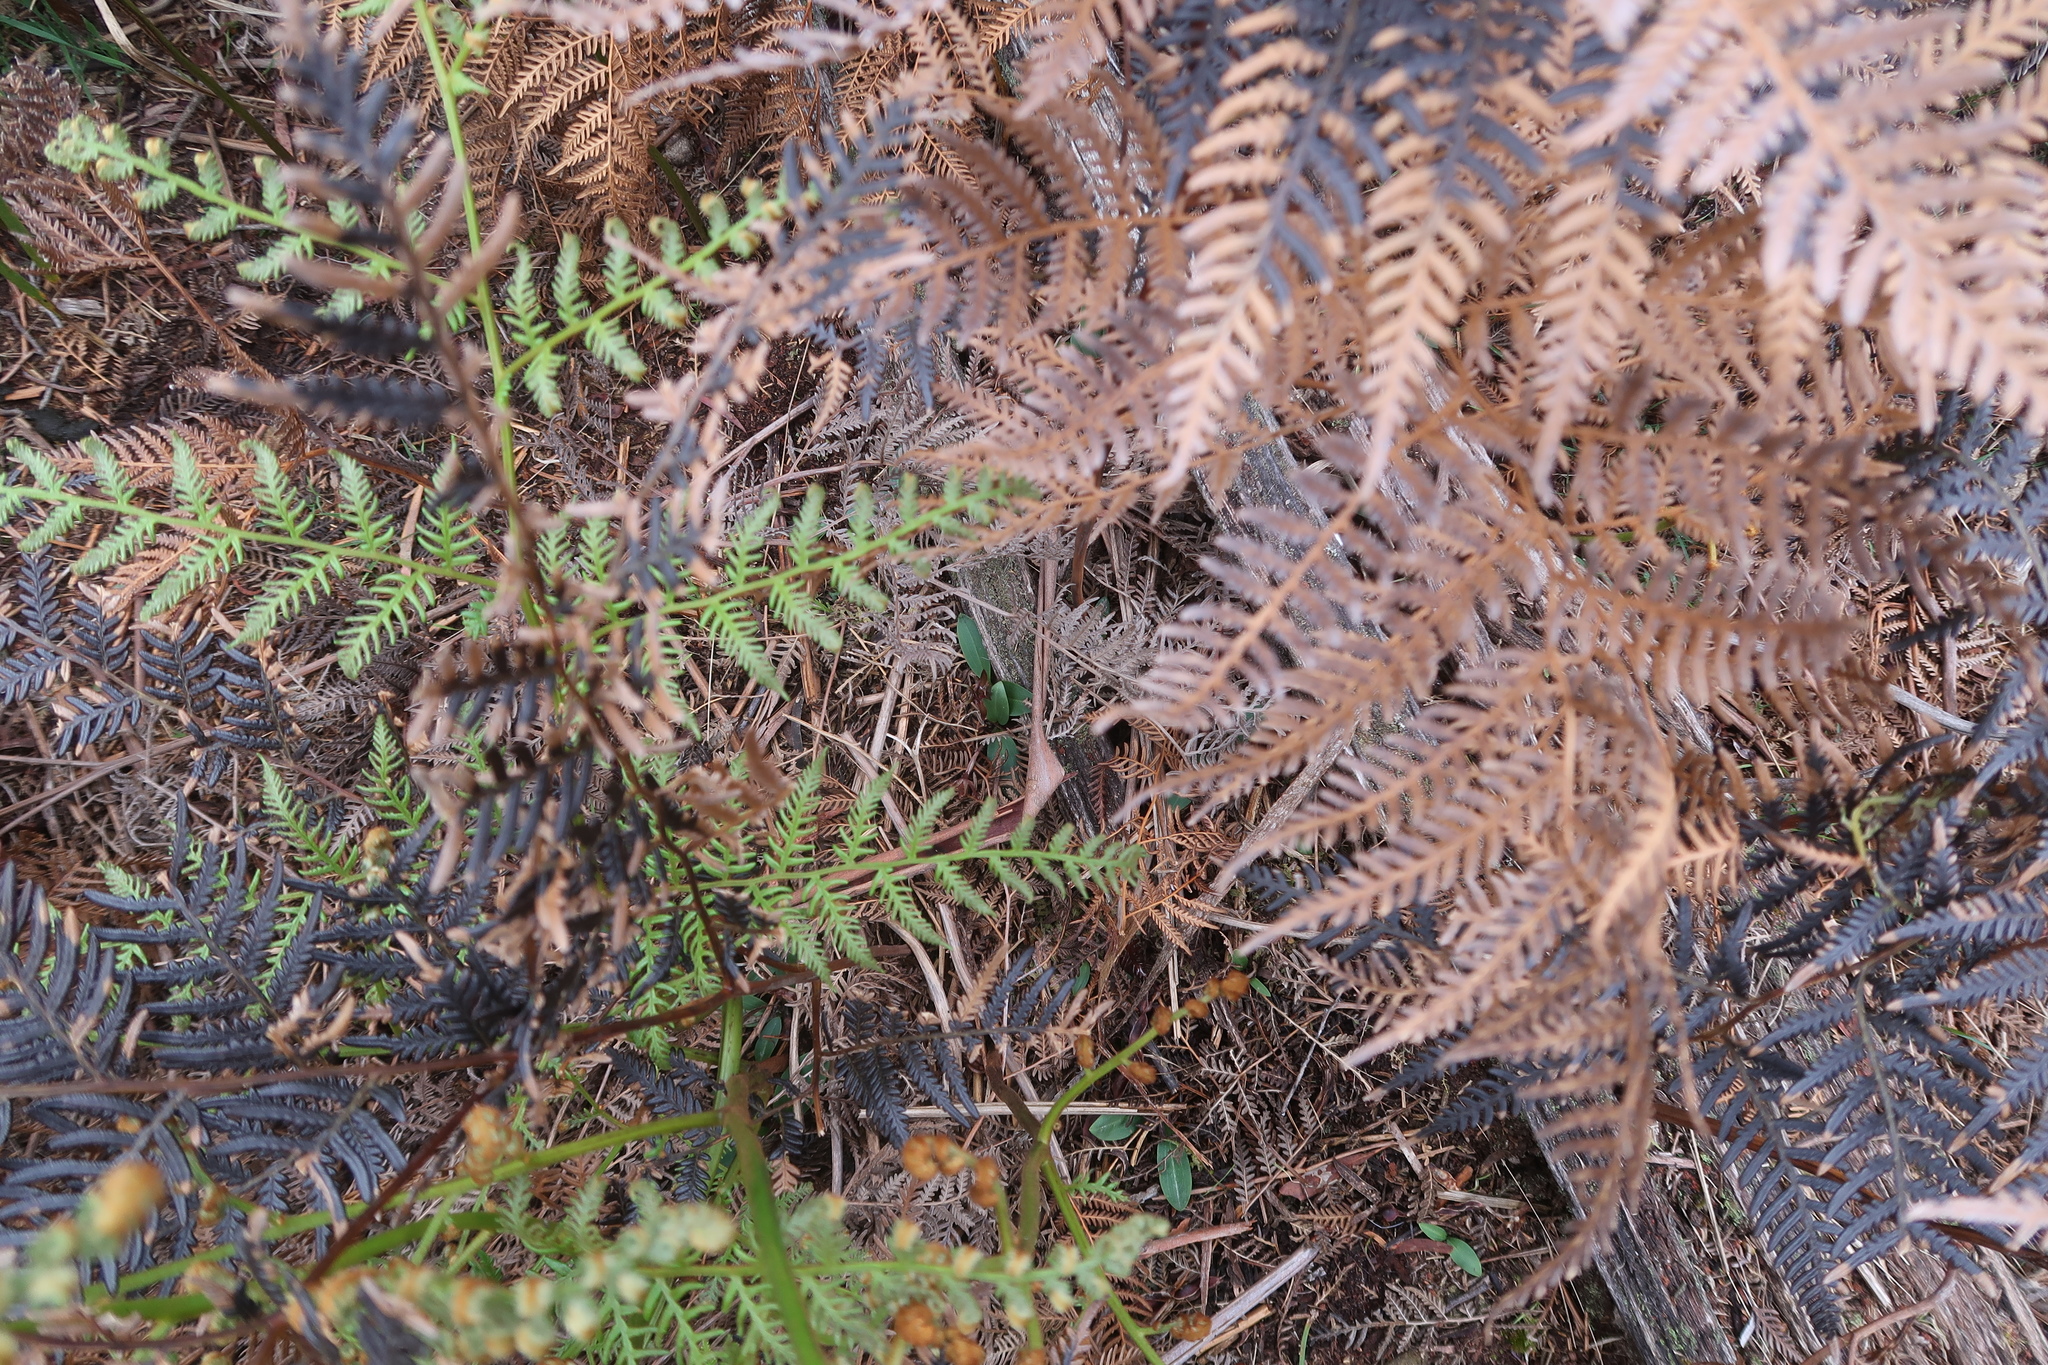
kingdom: Plantae
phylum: Tracheophyta
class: Liliopsida
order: Asparagales
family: Orchidaceae
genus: Chiloglottis
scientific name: Chiloglottis triceratops
